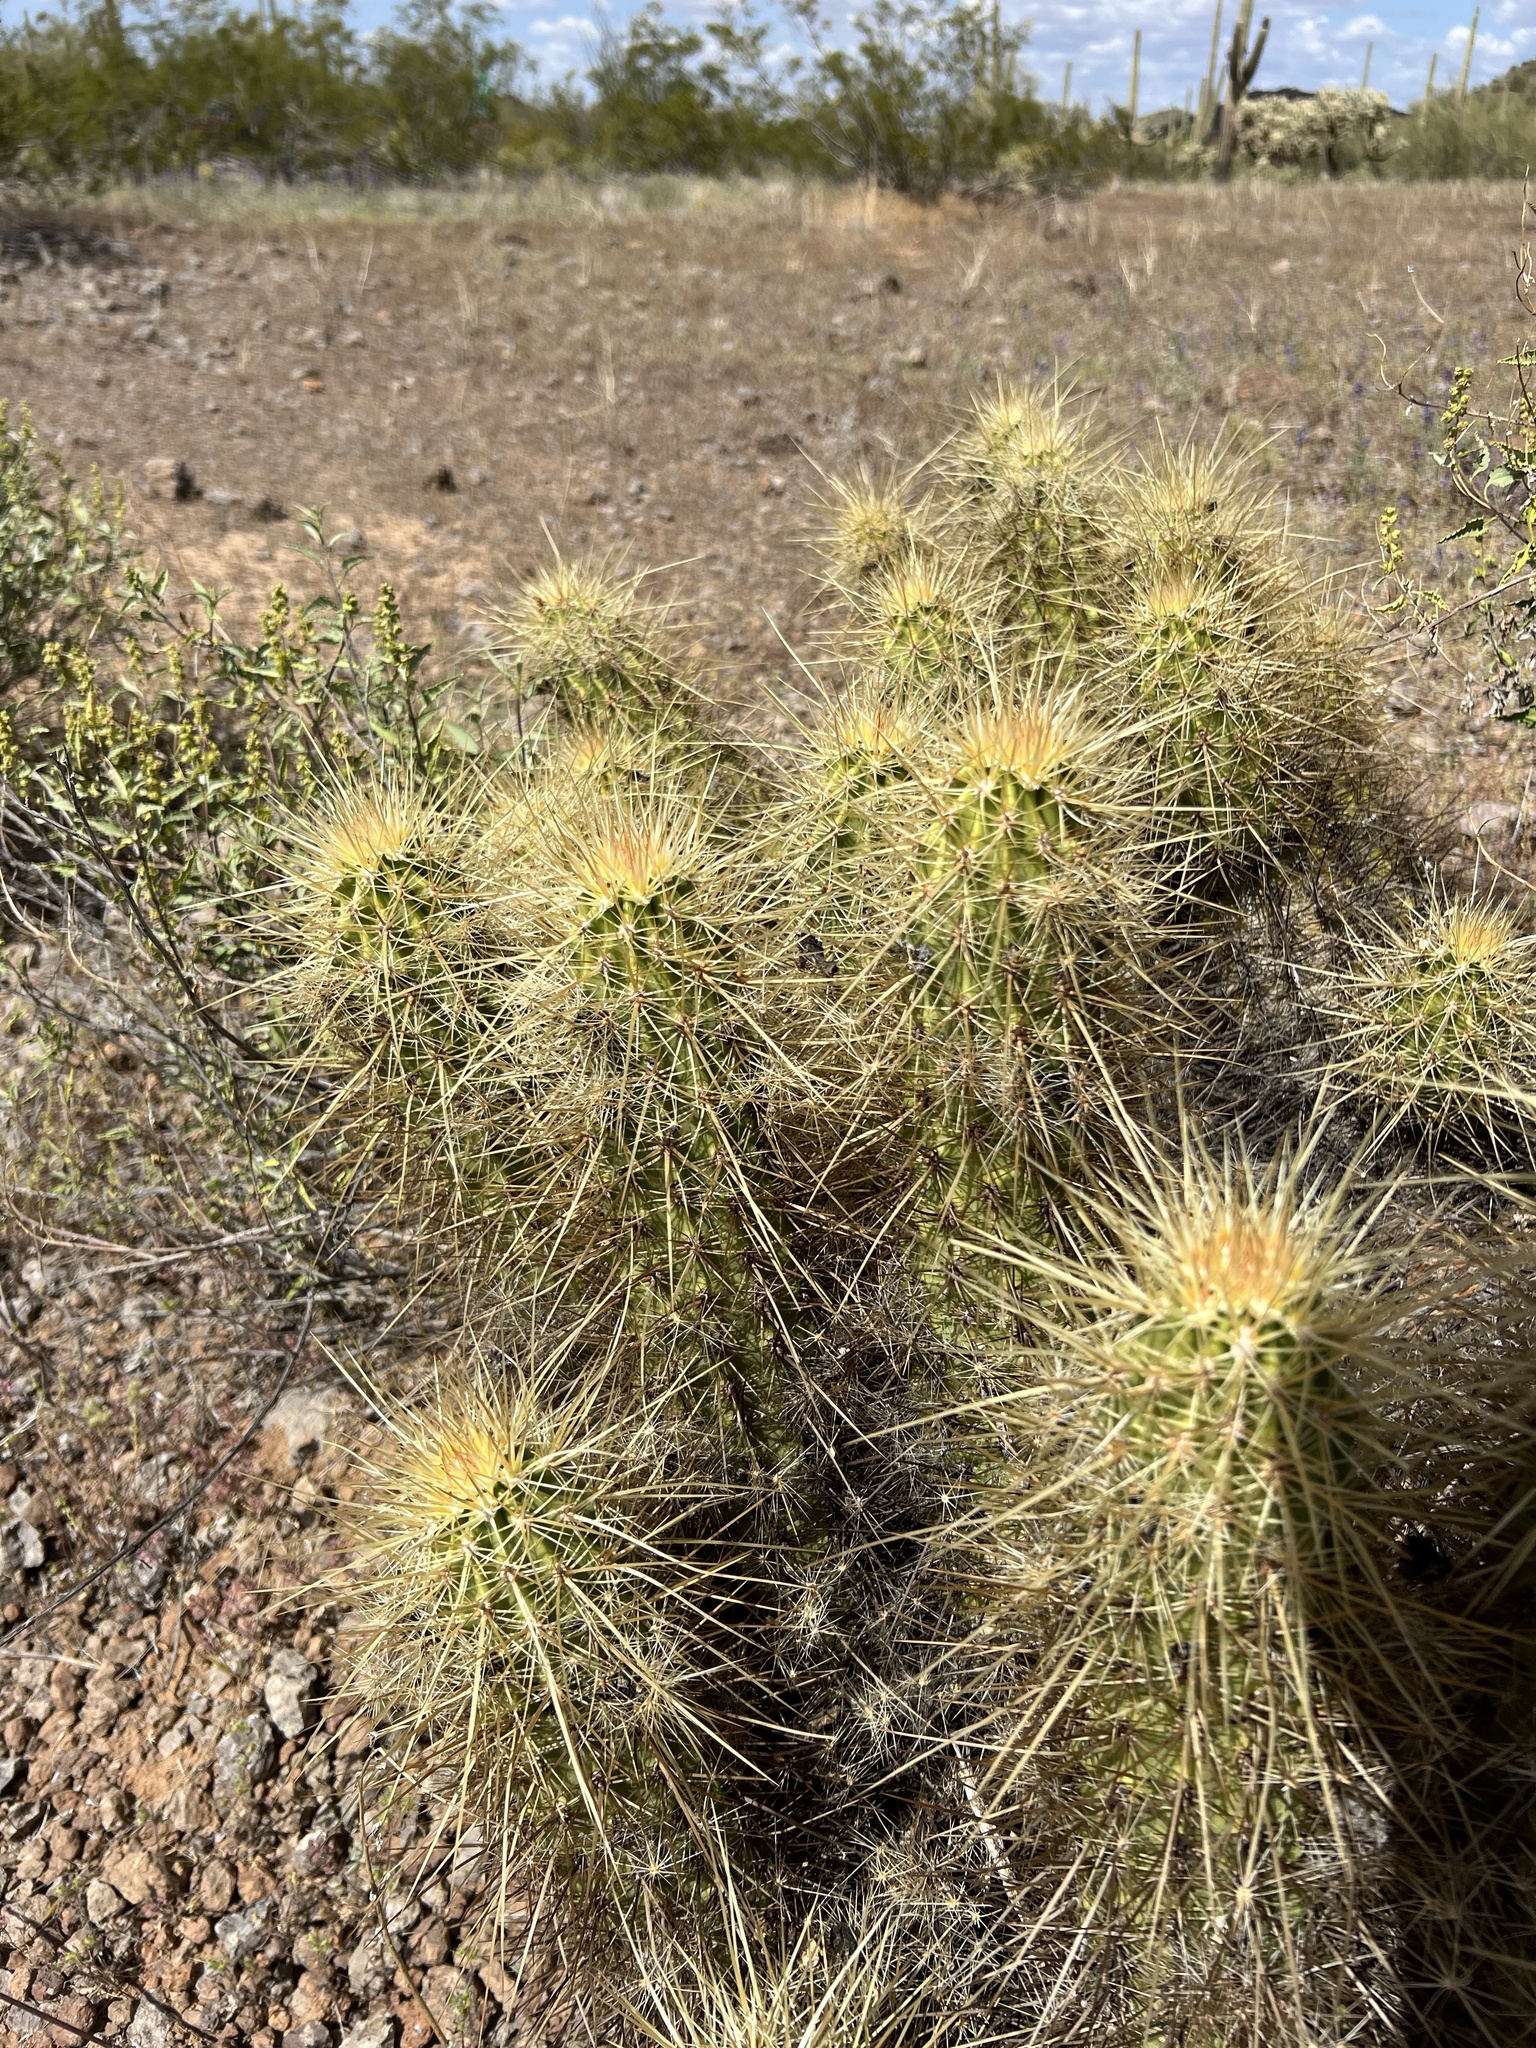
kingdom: Plantae
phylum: Tracheophyta
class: Magnoliopsida
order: Caryophyllales
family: Cactaceae
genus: Echinocereus
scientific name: Echinocereus nicholii
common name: Nichol's hedgehog cactus
